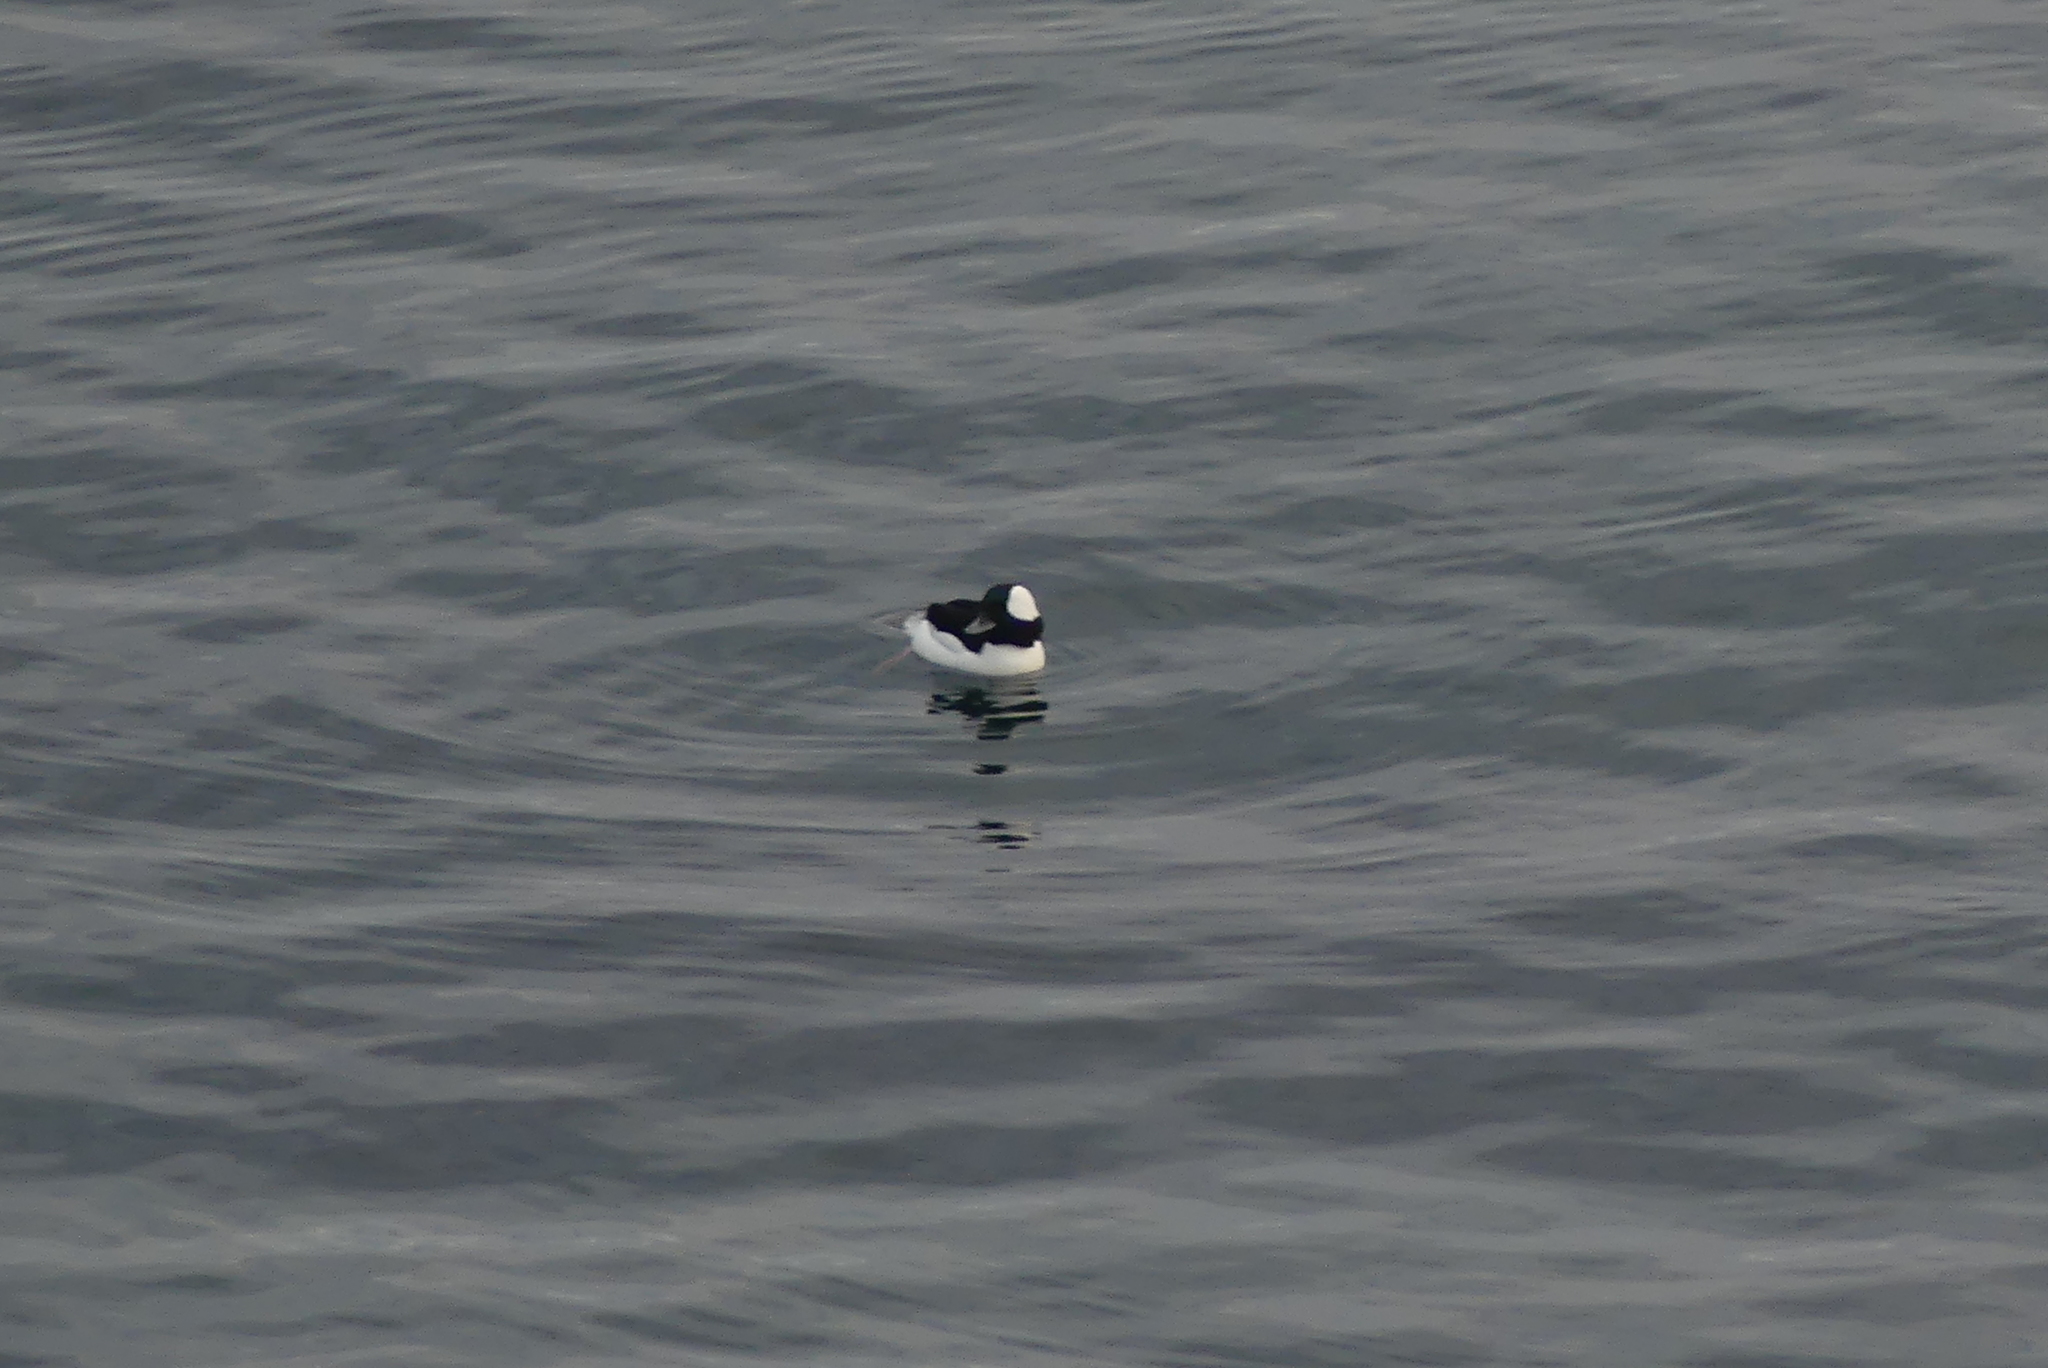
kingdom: Animalia
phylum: Chordata
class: Aves
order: Anseriformes
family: Anatidae
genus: Bucephala
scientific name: Bucephala albeola
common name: Bufflehead
